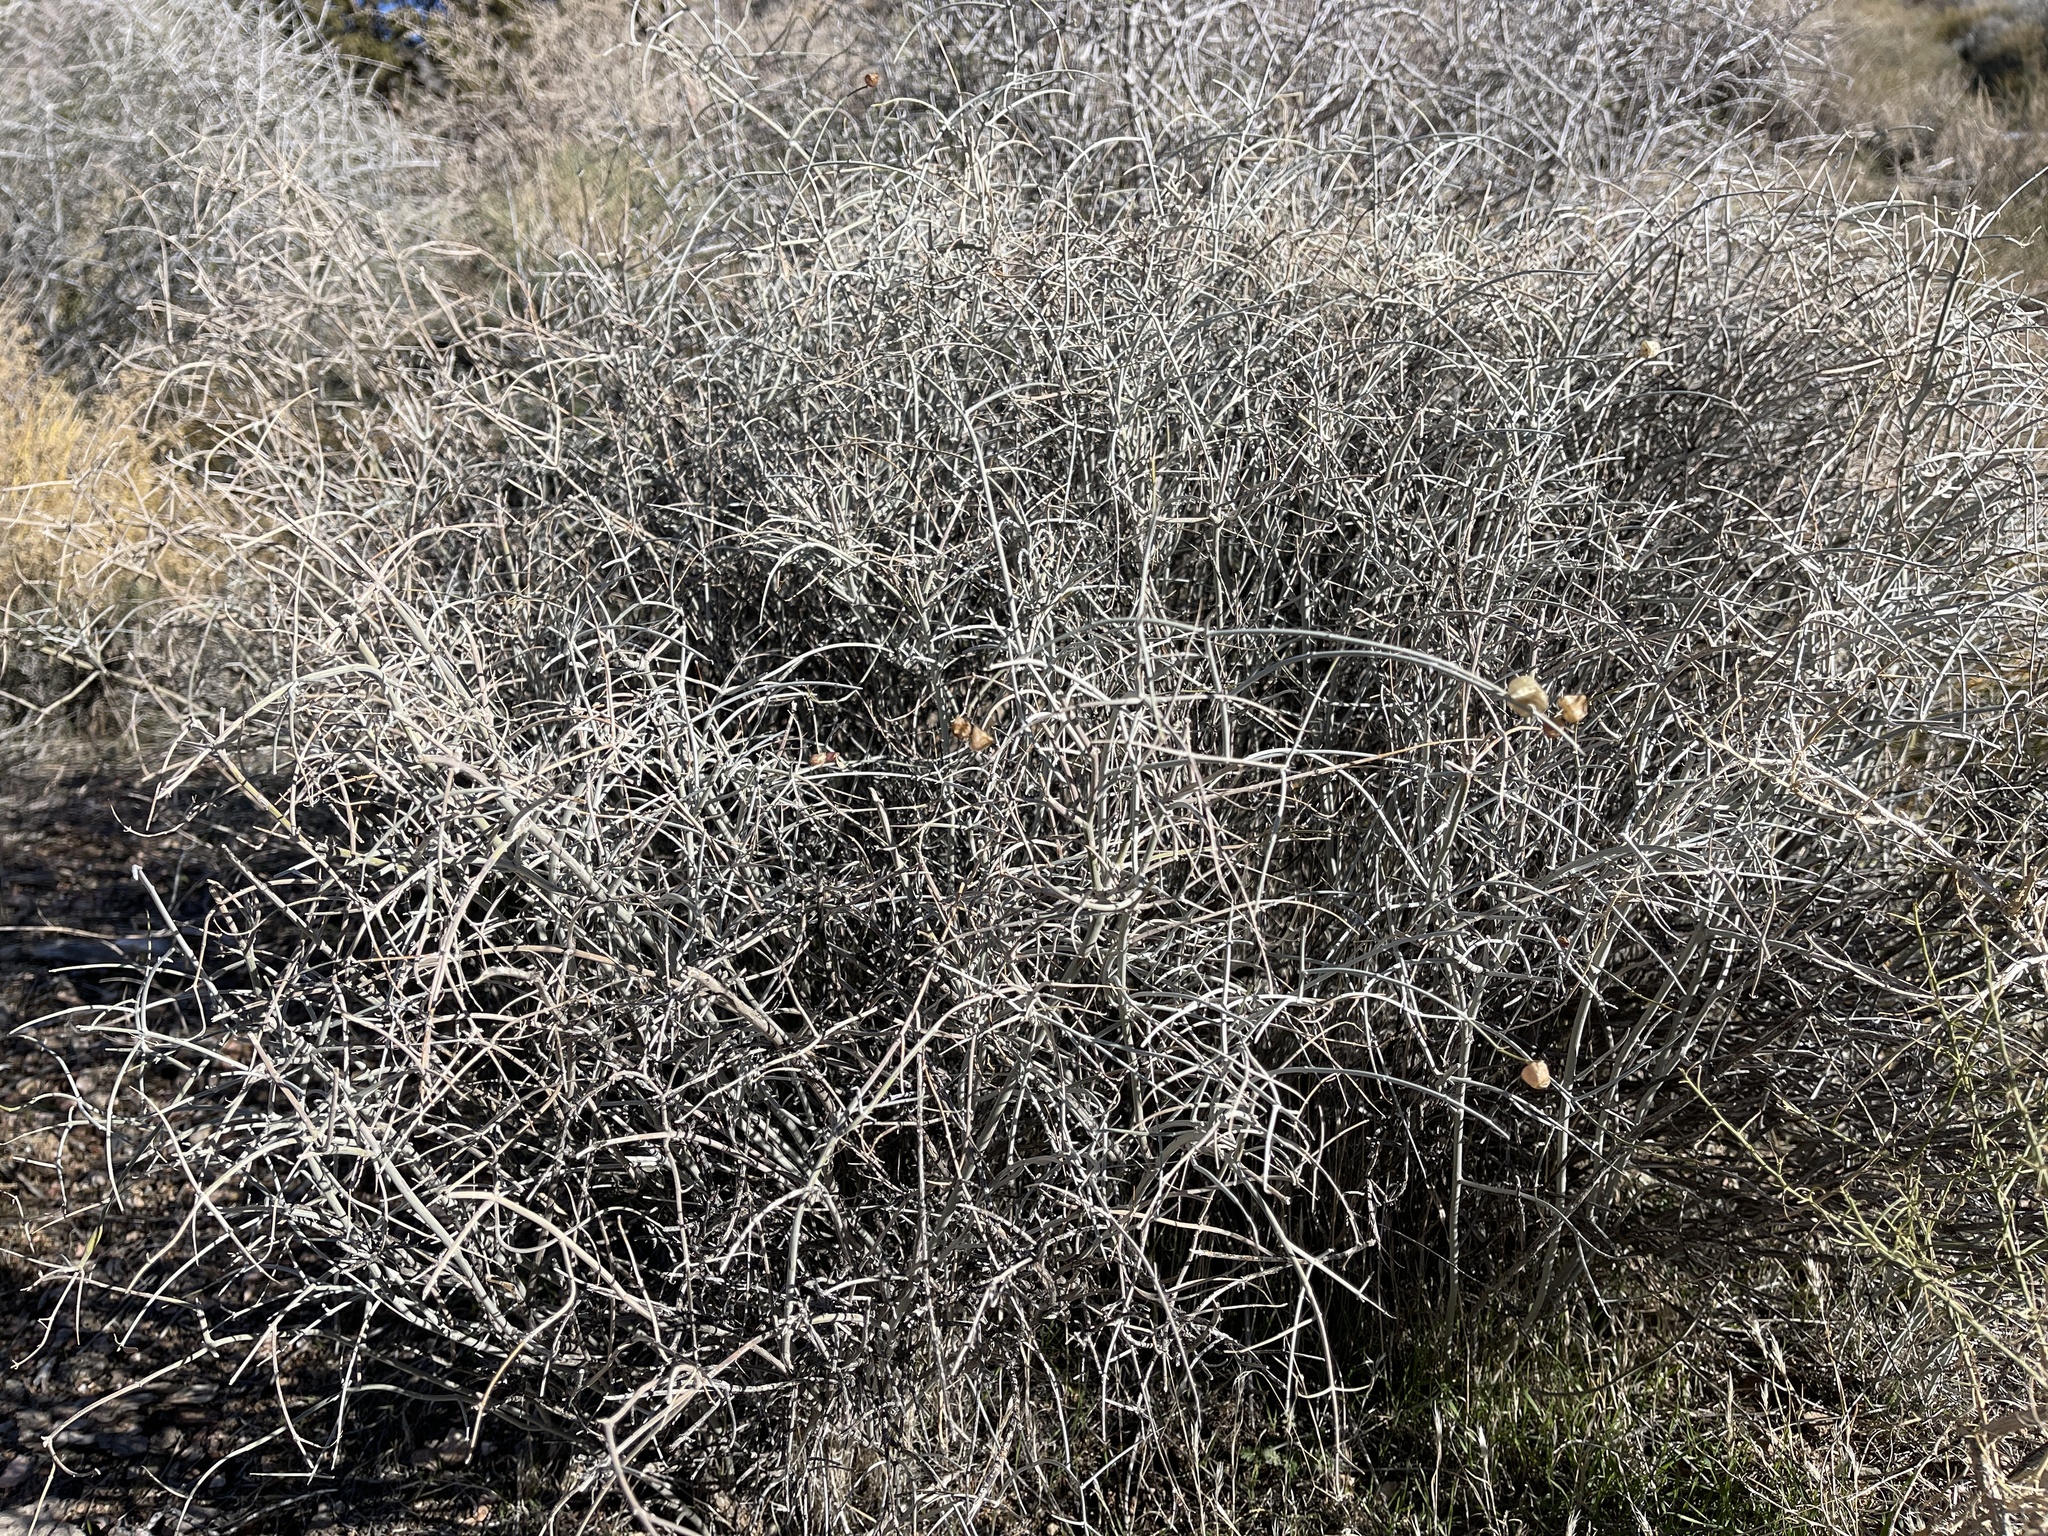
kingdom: Plantae
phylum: Tracheophyta
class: Magnoliopsida
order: Lamiales
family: Lamiaceae
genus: Scutellaria
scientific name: Scutellaria mexicana
